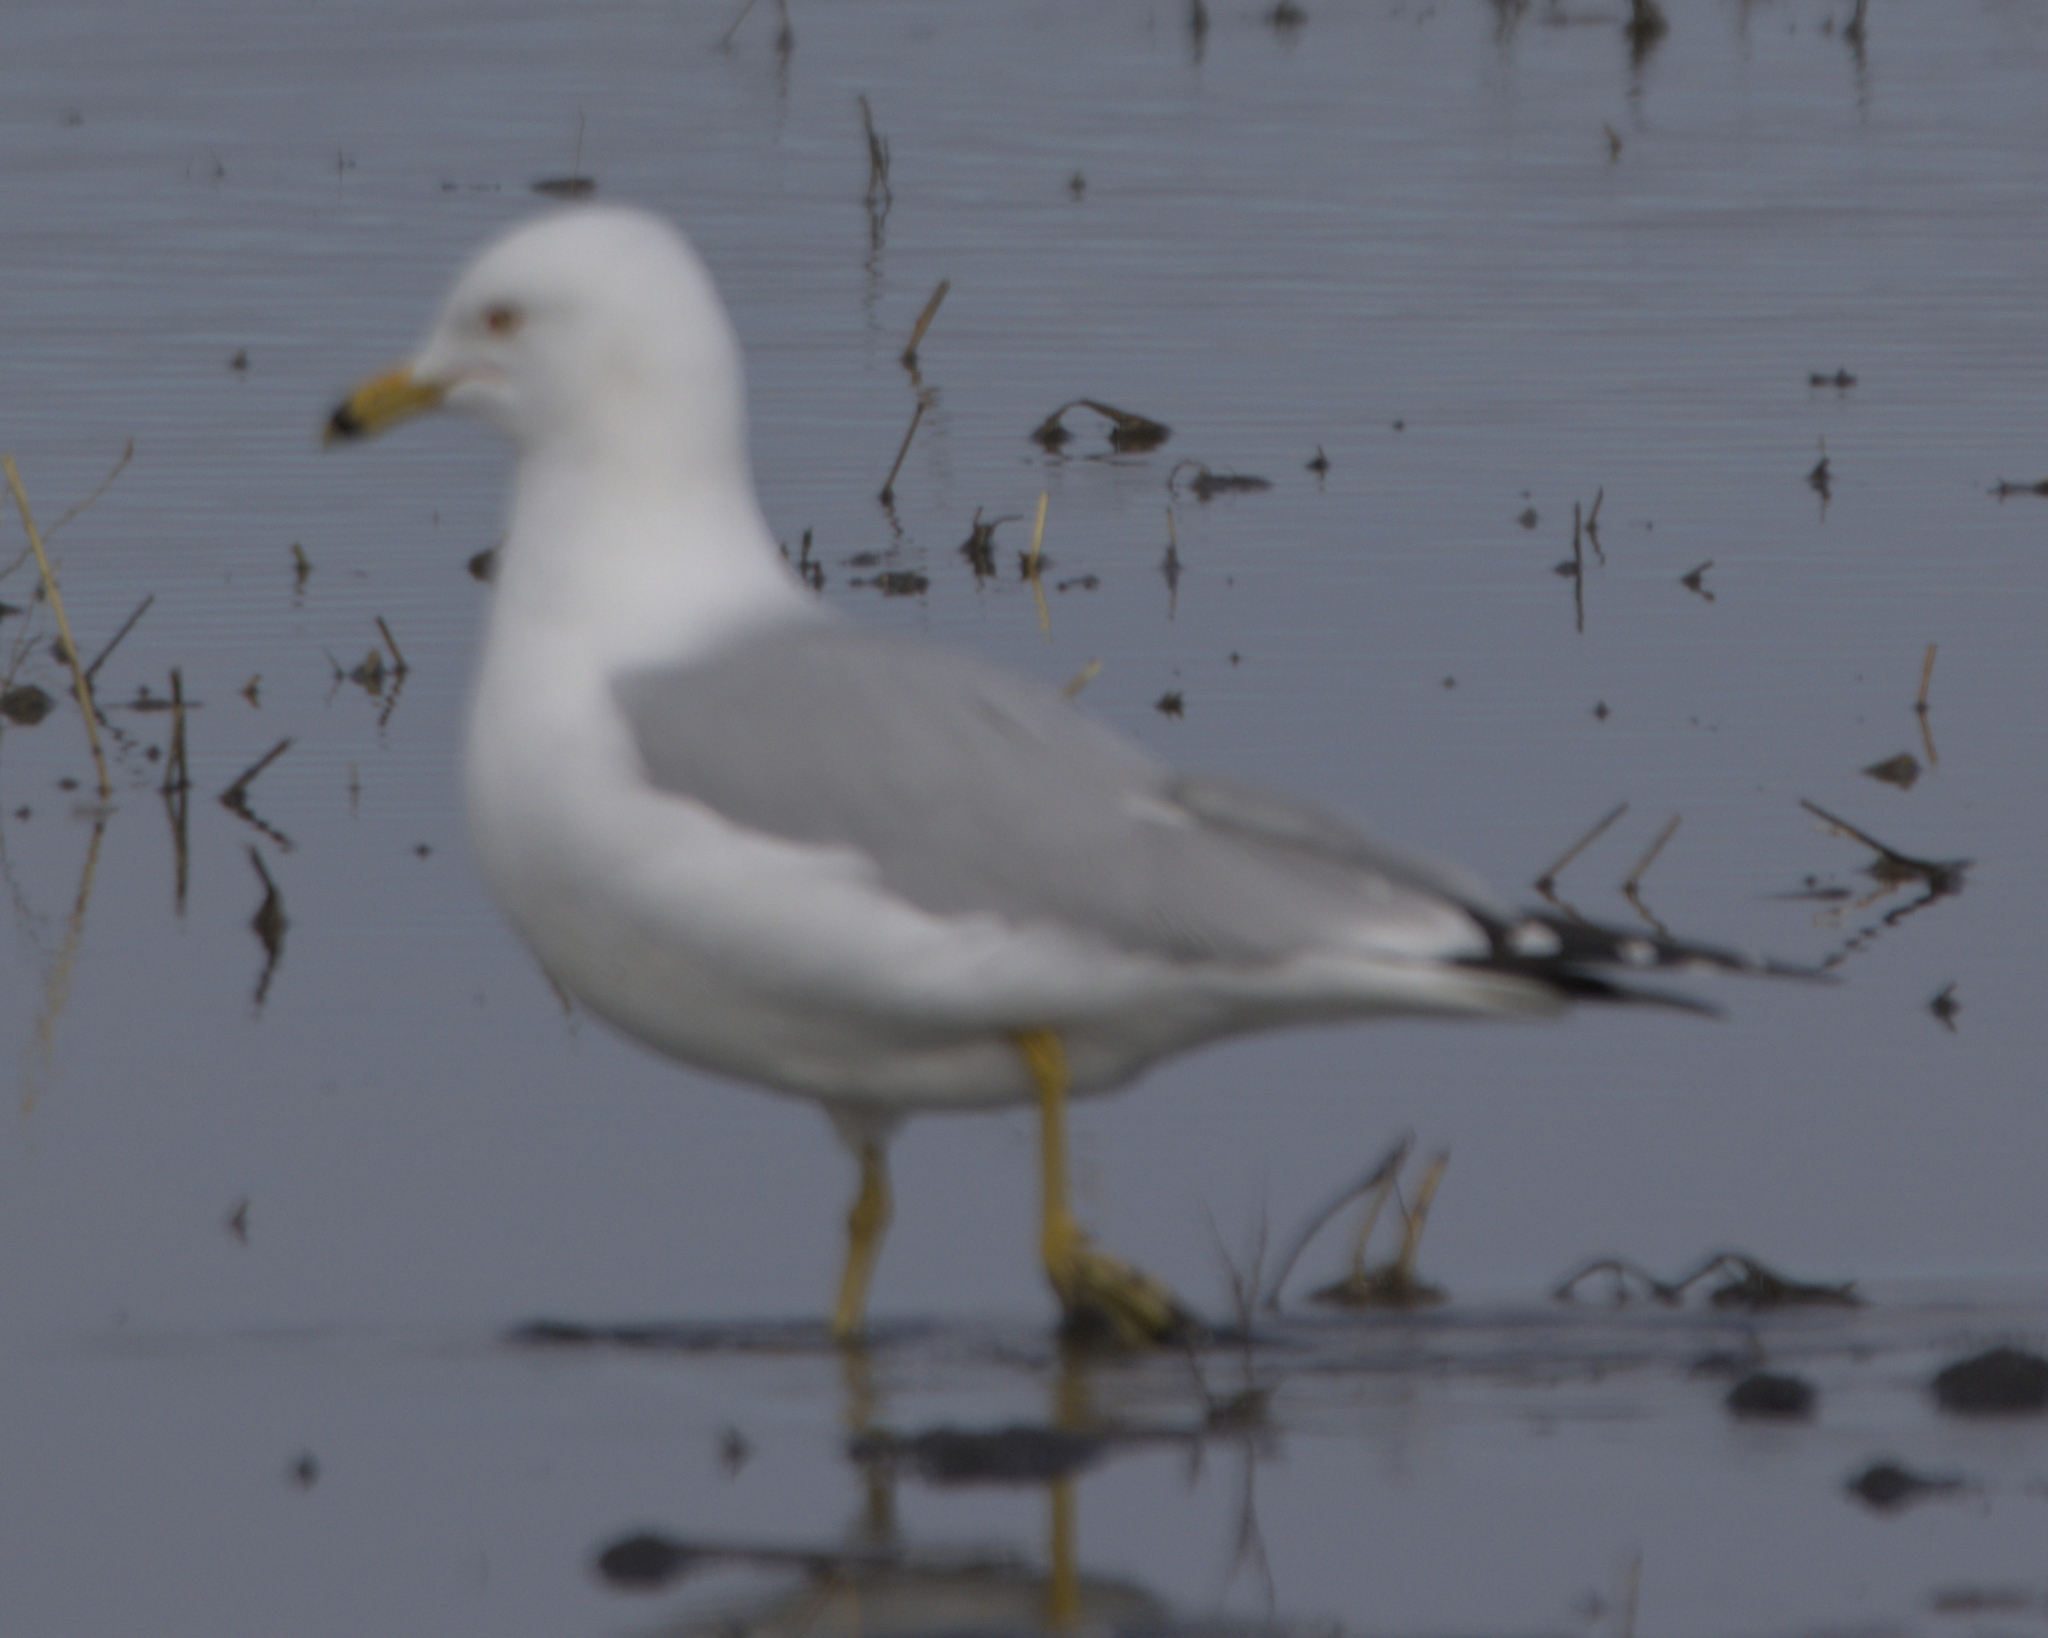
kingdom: Animalia
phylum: Chordata
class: Aves
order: Charadriiformes
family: Laridae
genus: Larus
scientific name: Larus delawarensis
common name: Ring-billed gull
